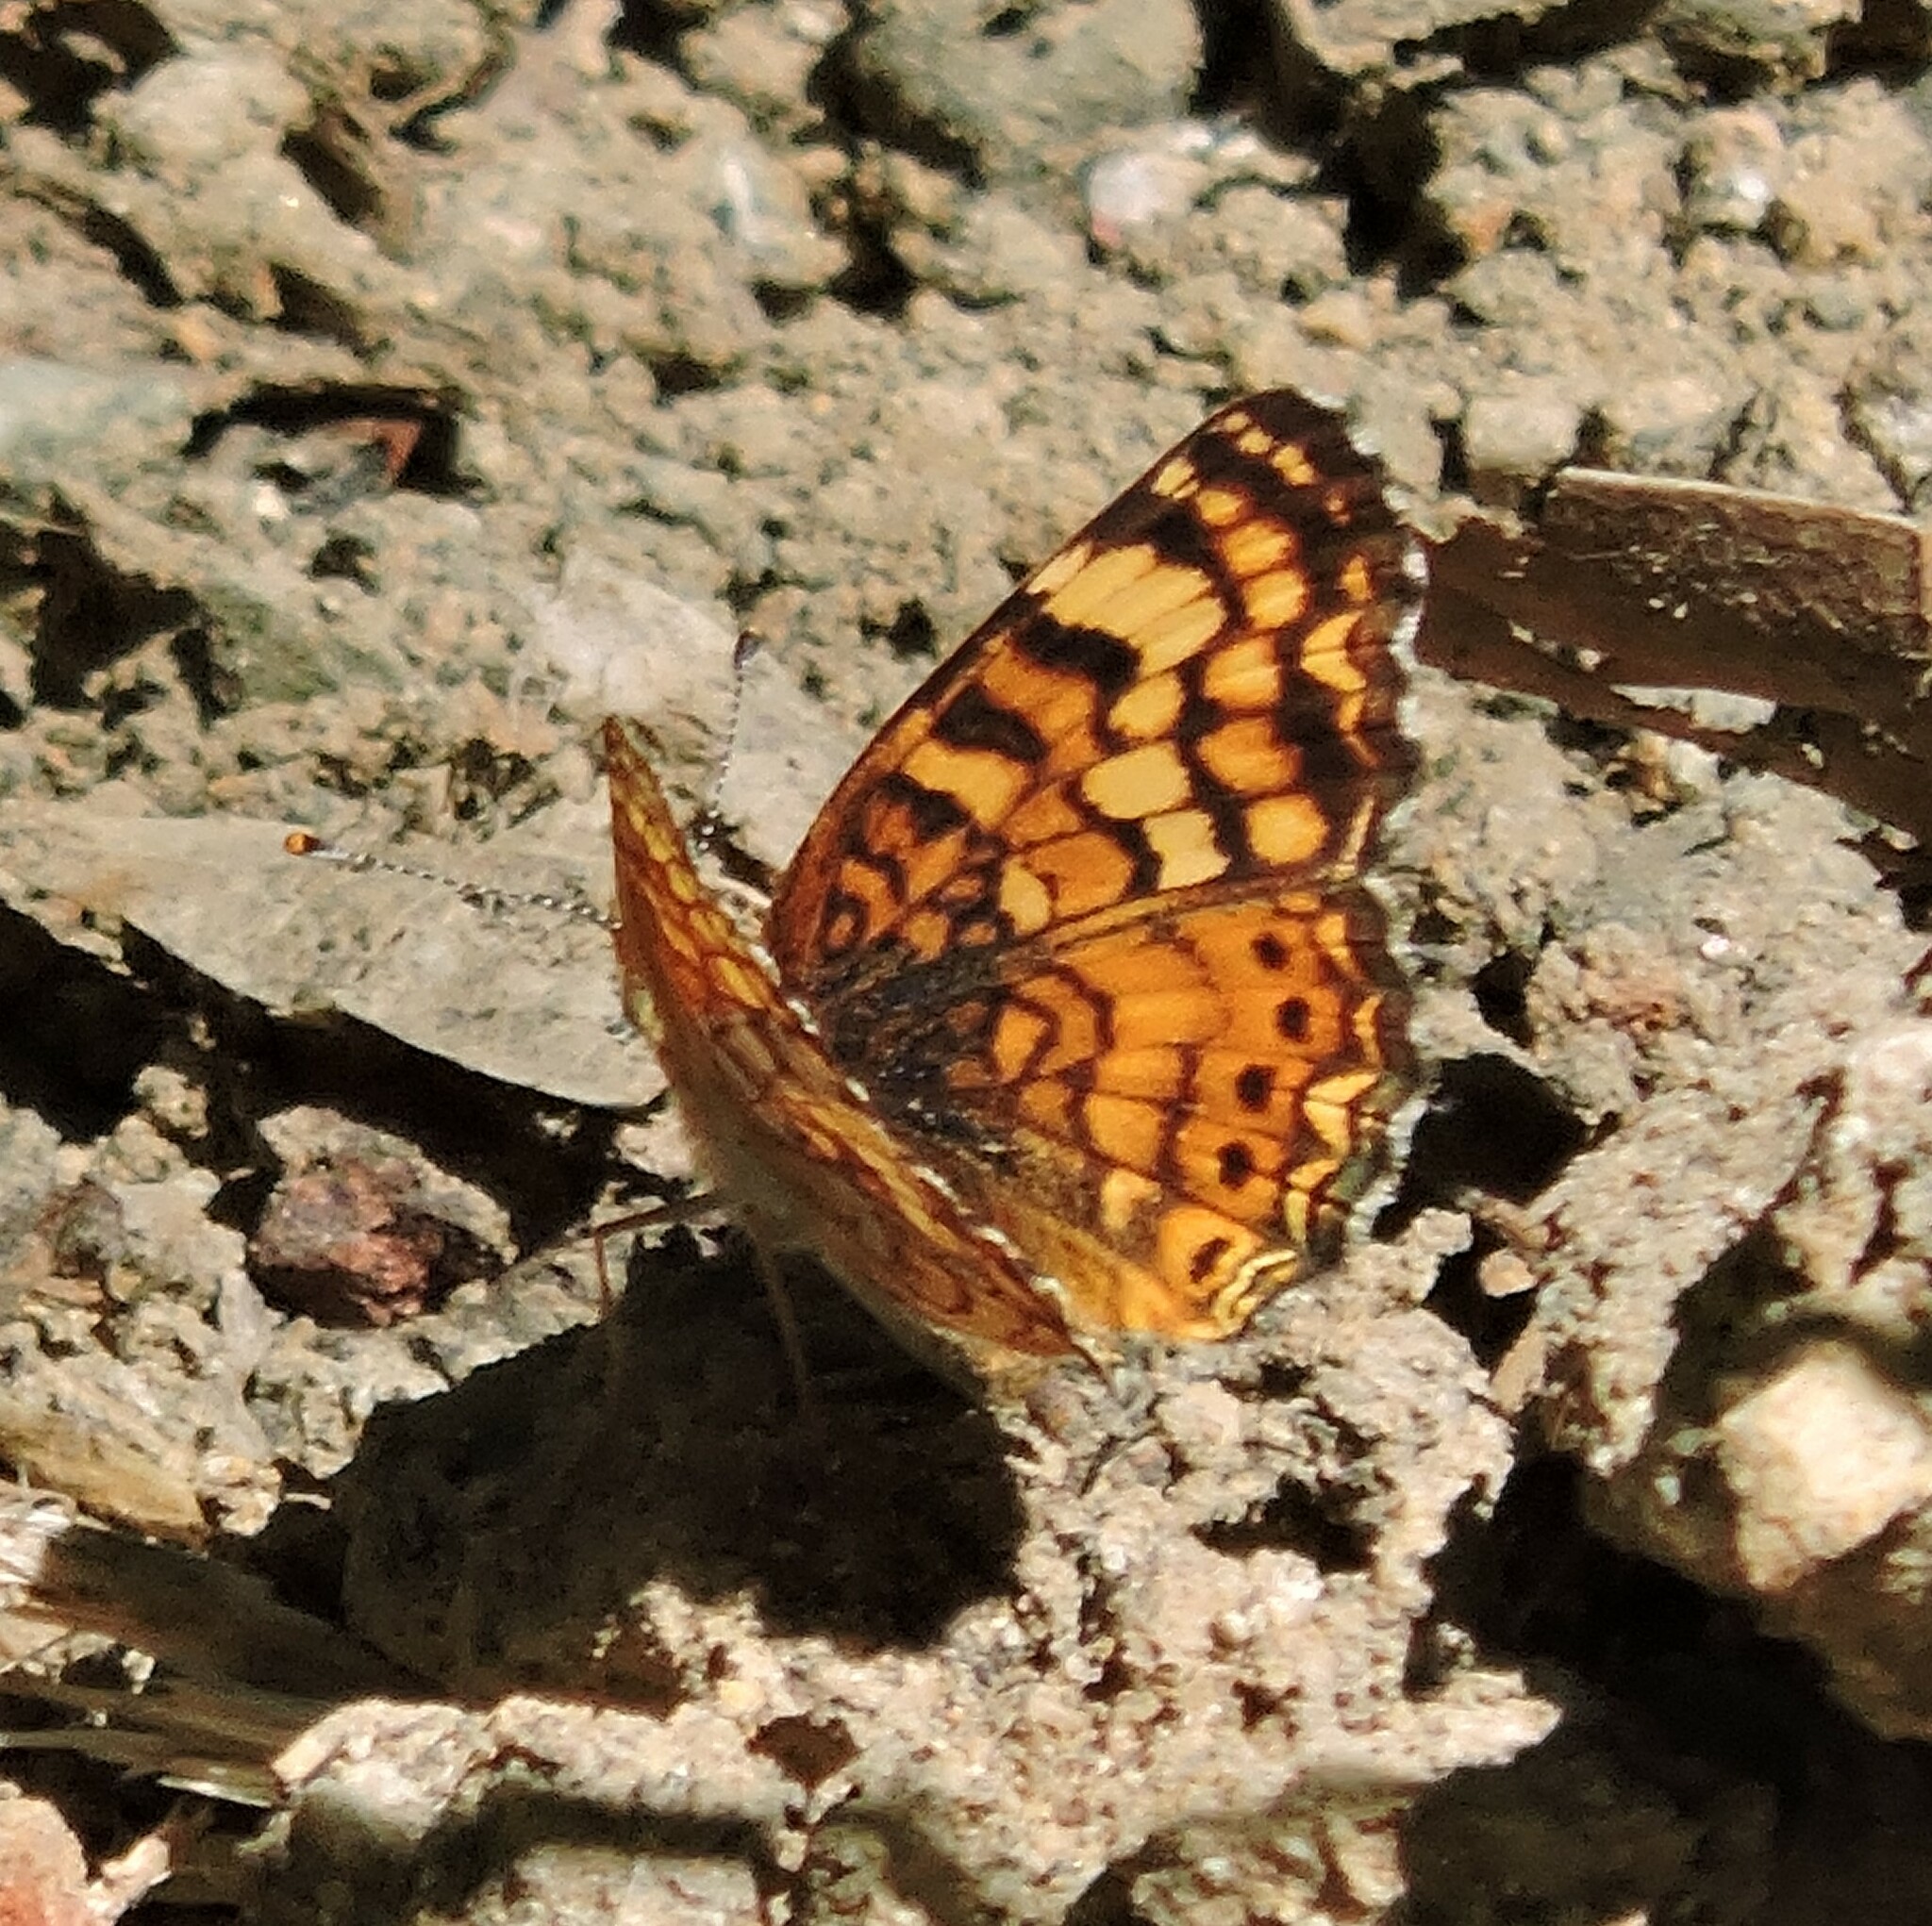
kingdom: Animalia
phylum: Arthropoda
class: Insecta
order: Lepidoptera
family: Nymphalidae
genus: Eresia
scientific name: Eresia aveyrona
